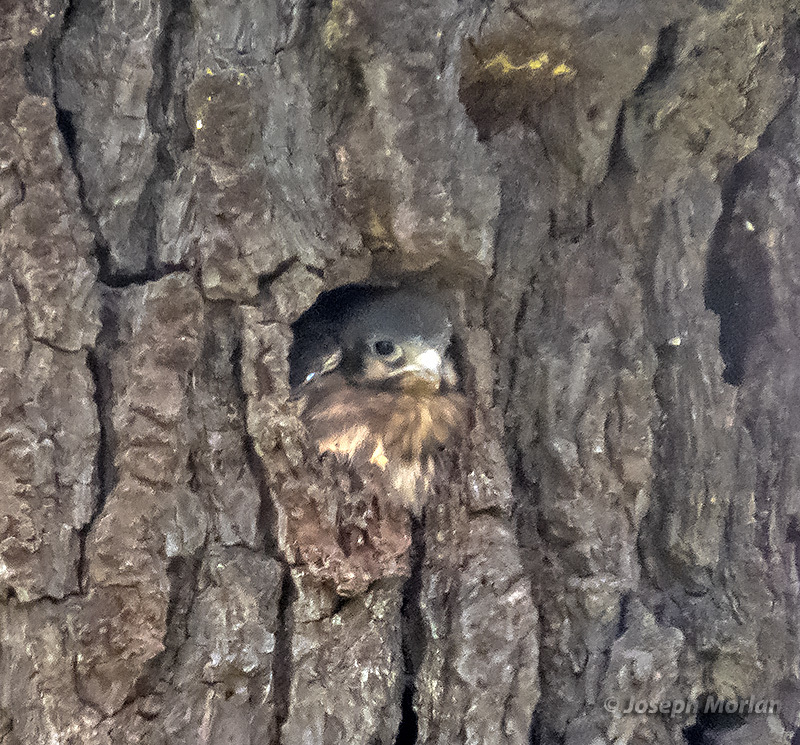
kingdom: Animalia
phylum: Chordata
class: Aves
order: Falconiformes
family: Falconidae
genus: Falco
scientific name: Falco sparverius
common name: American kestrel
